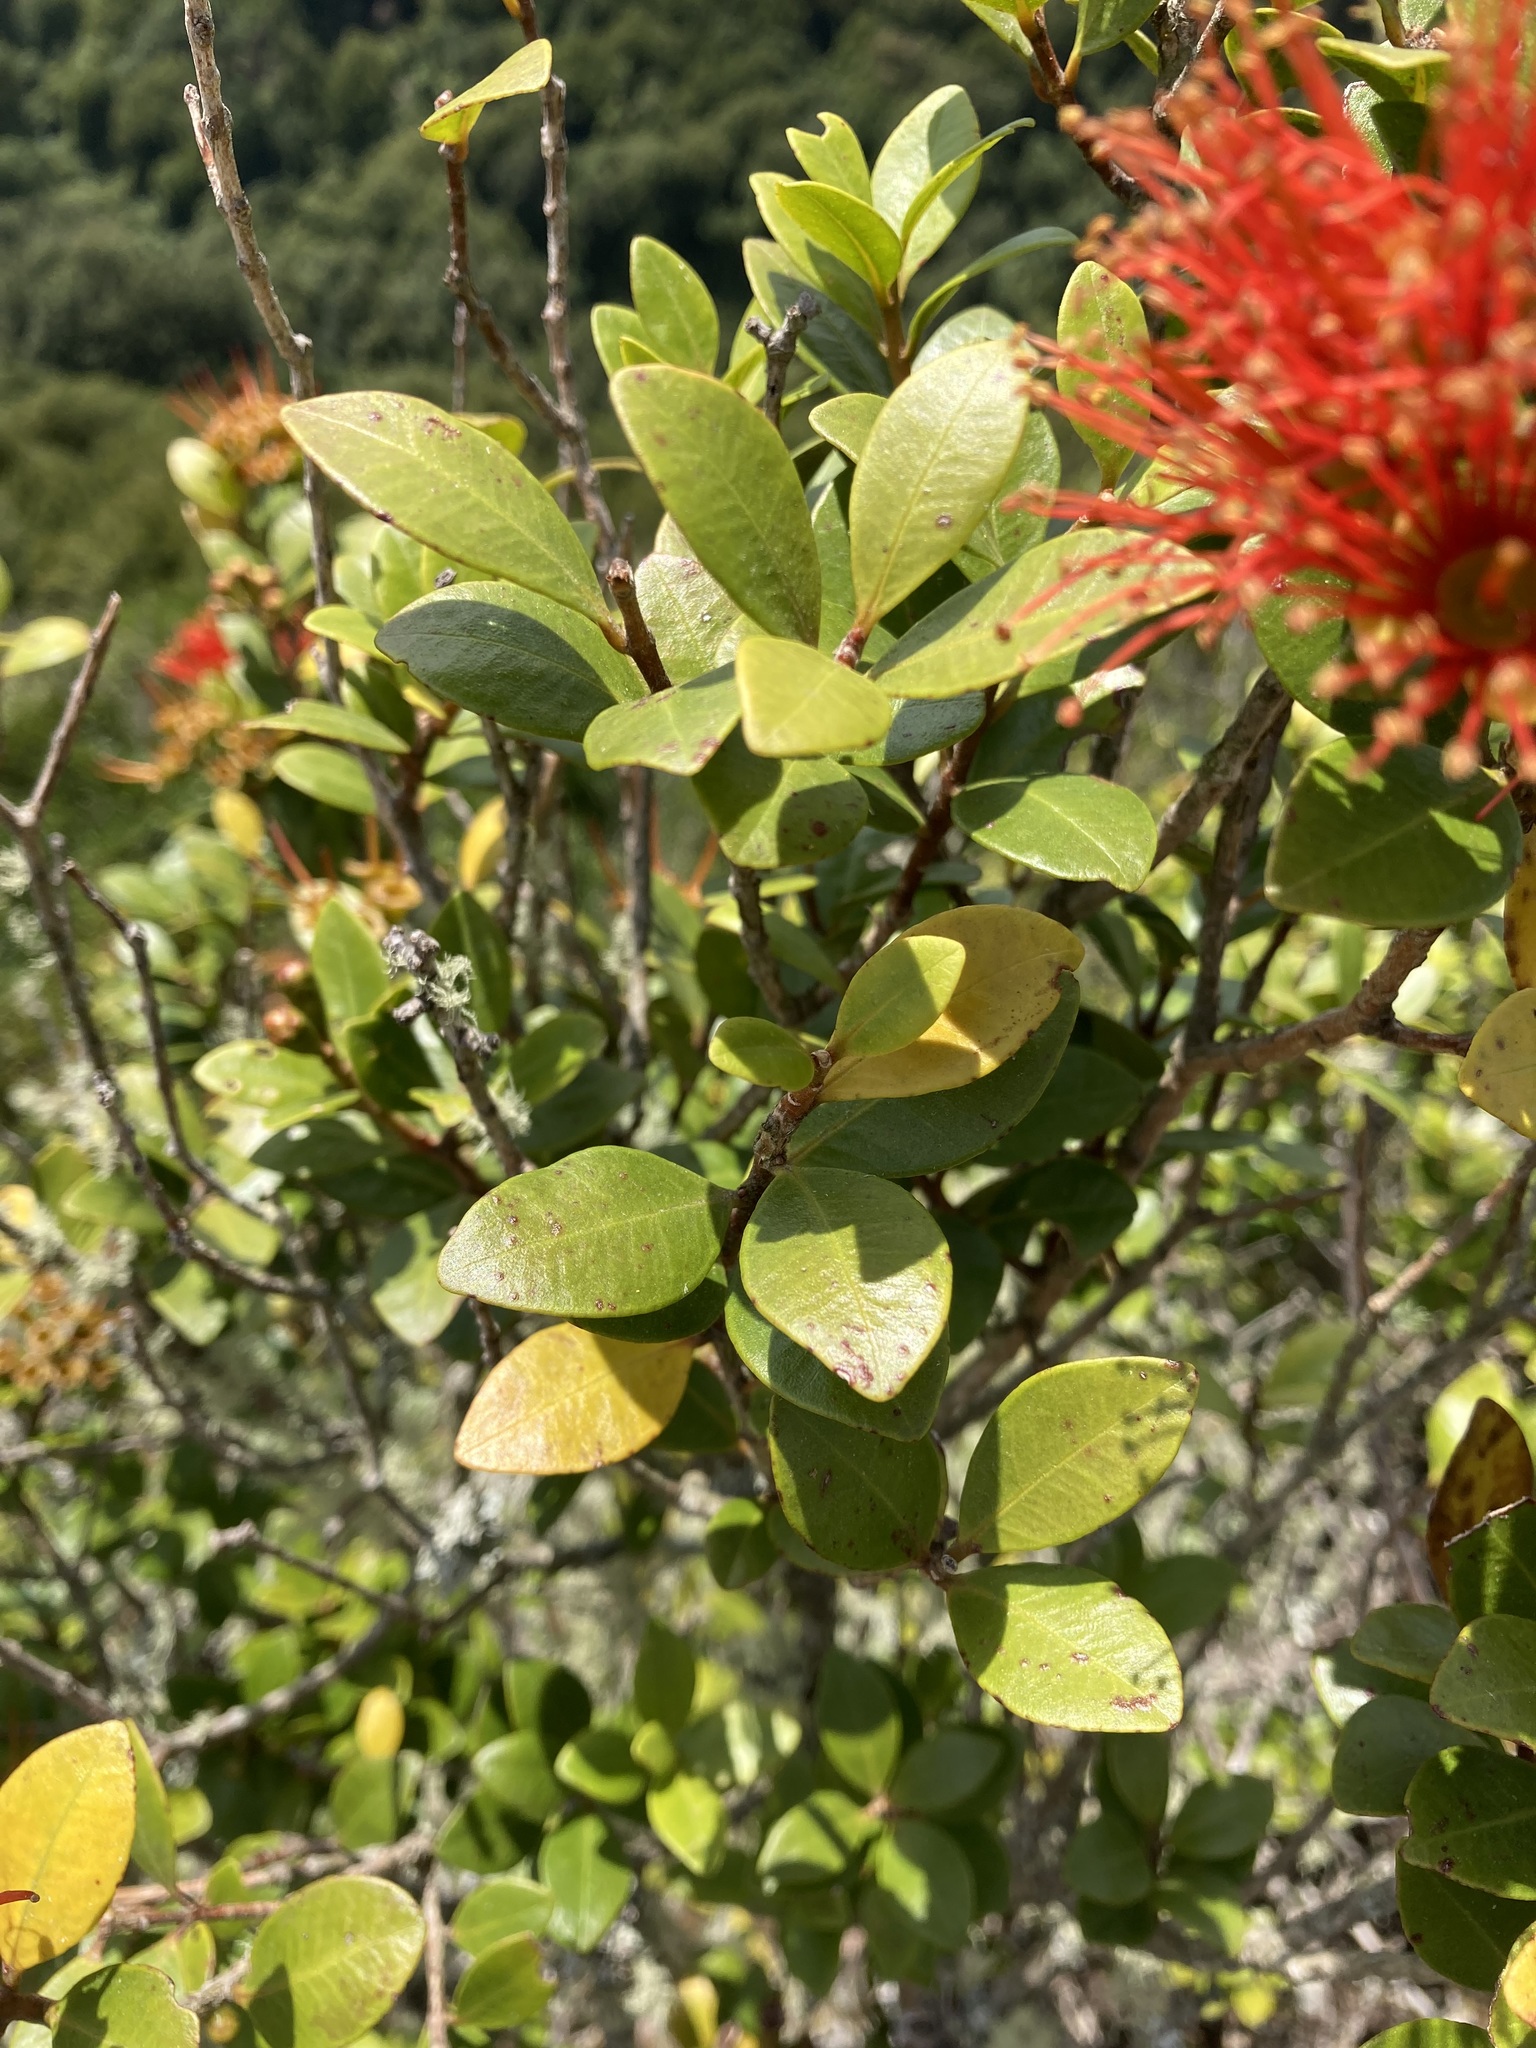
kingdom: Plantae
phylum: Tracheophyta
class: Magnoliopsida
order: Myrtales
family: Myrtaceae
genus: Metrosideros
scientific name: Metrosideros fulgens
